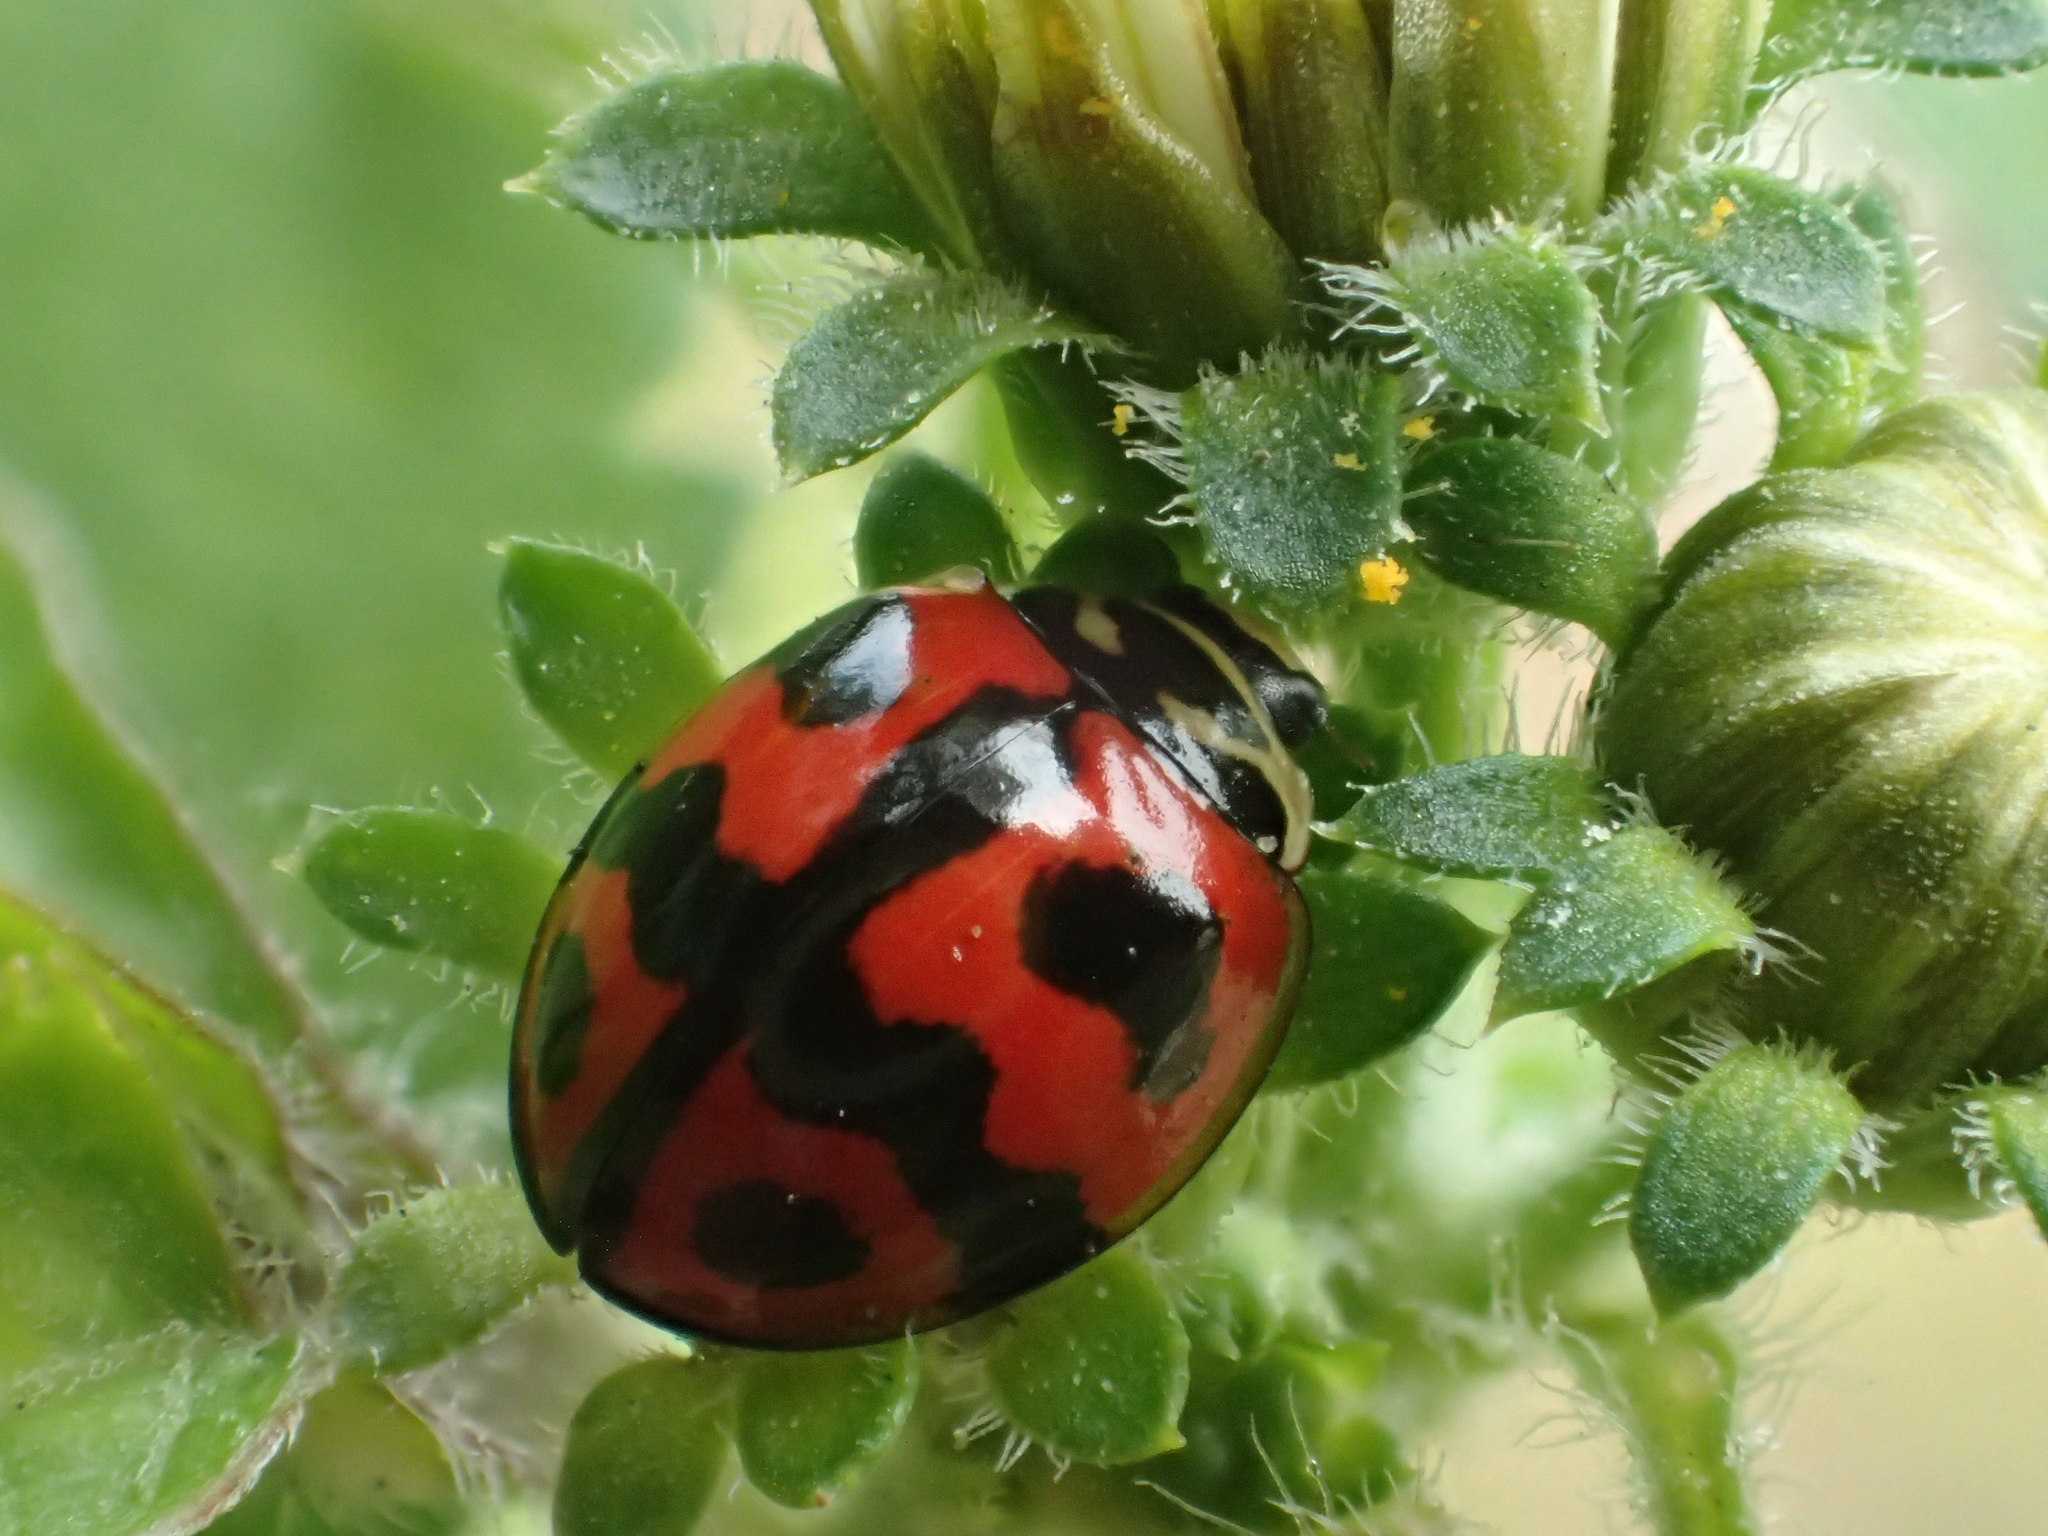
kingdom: Animalia
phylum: Arthropoda
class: Insecta
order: Coleoptera
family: Coccinellidae
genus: Cheilomenes
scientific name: Cheilomenes sexmaculata
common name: Ladybird beetle
